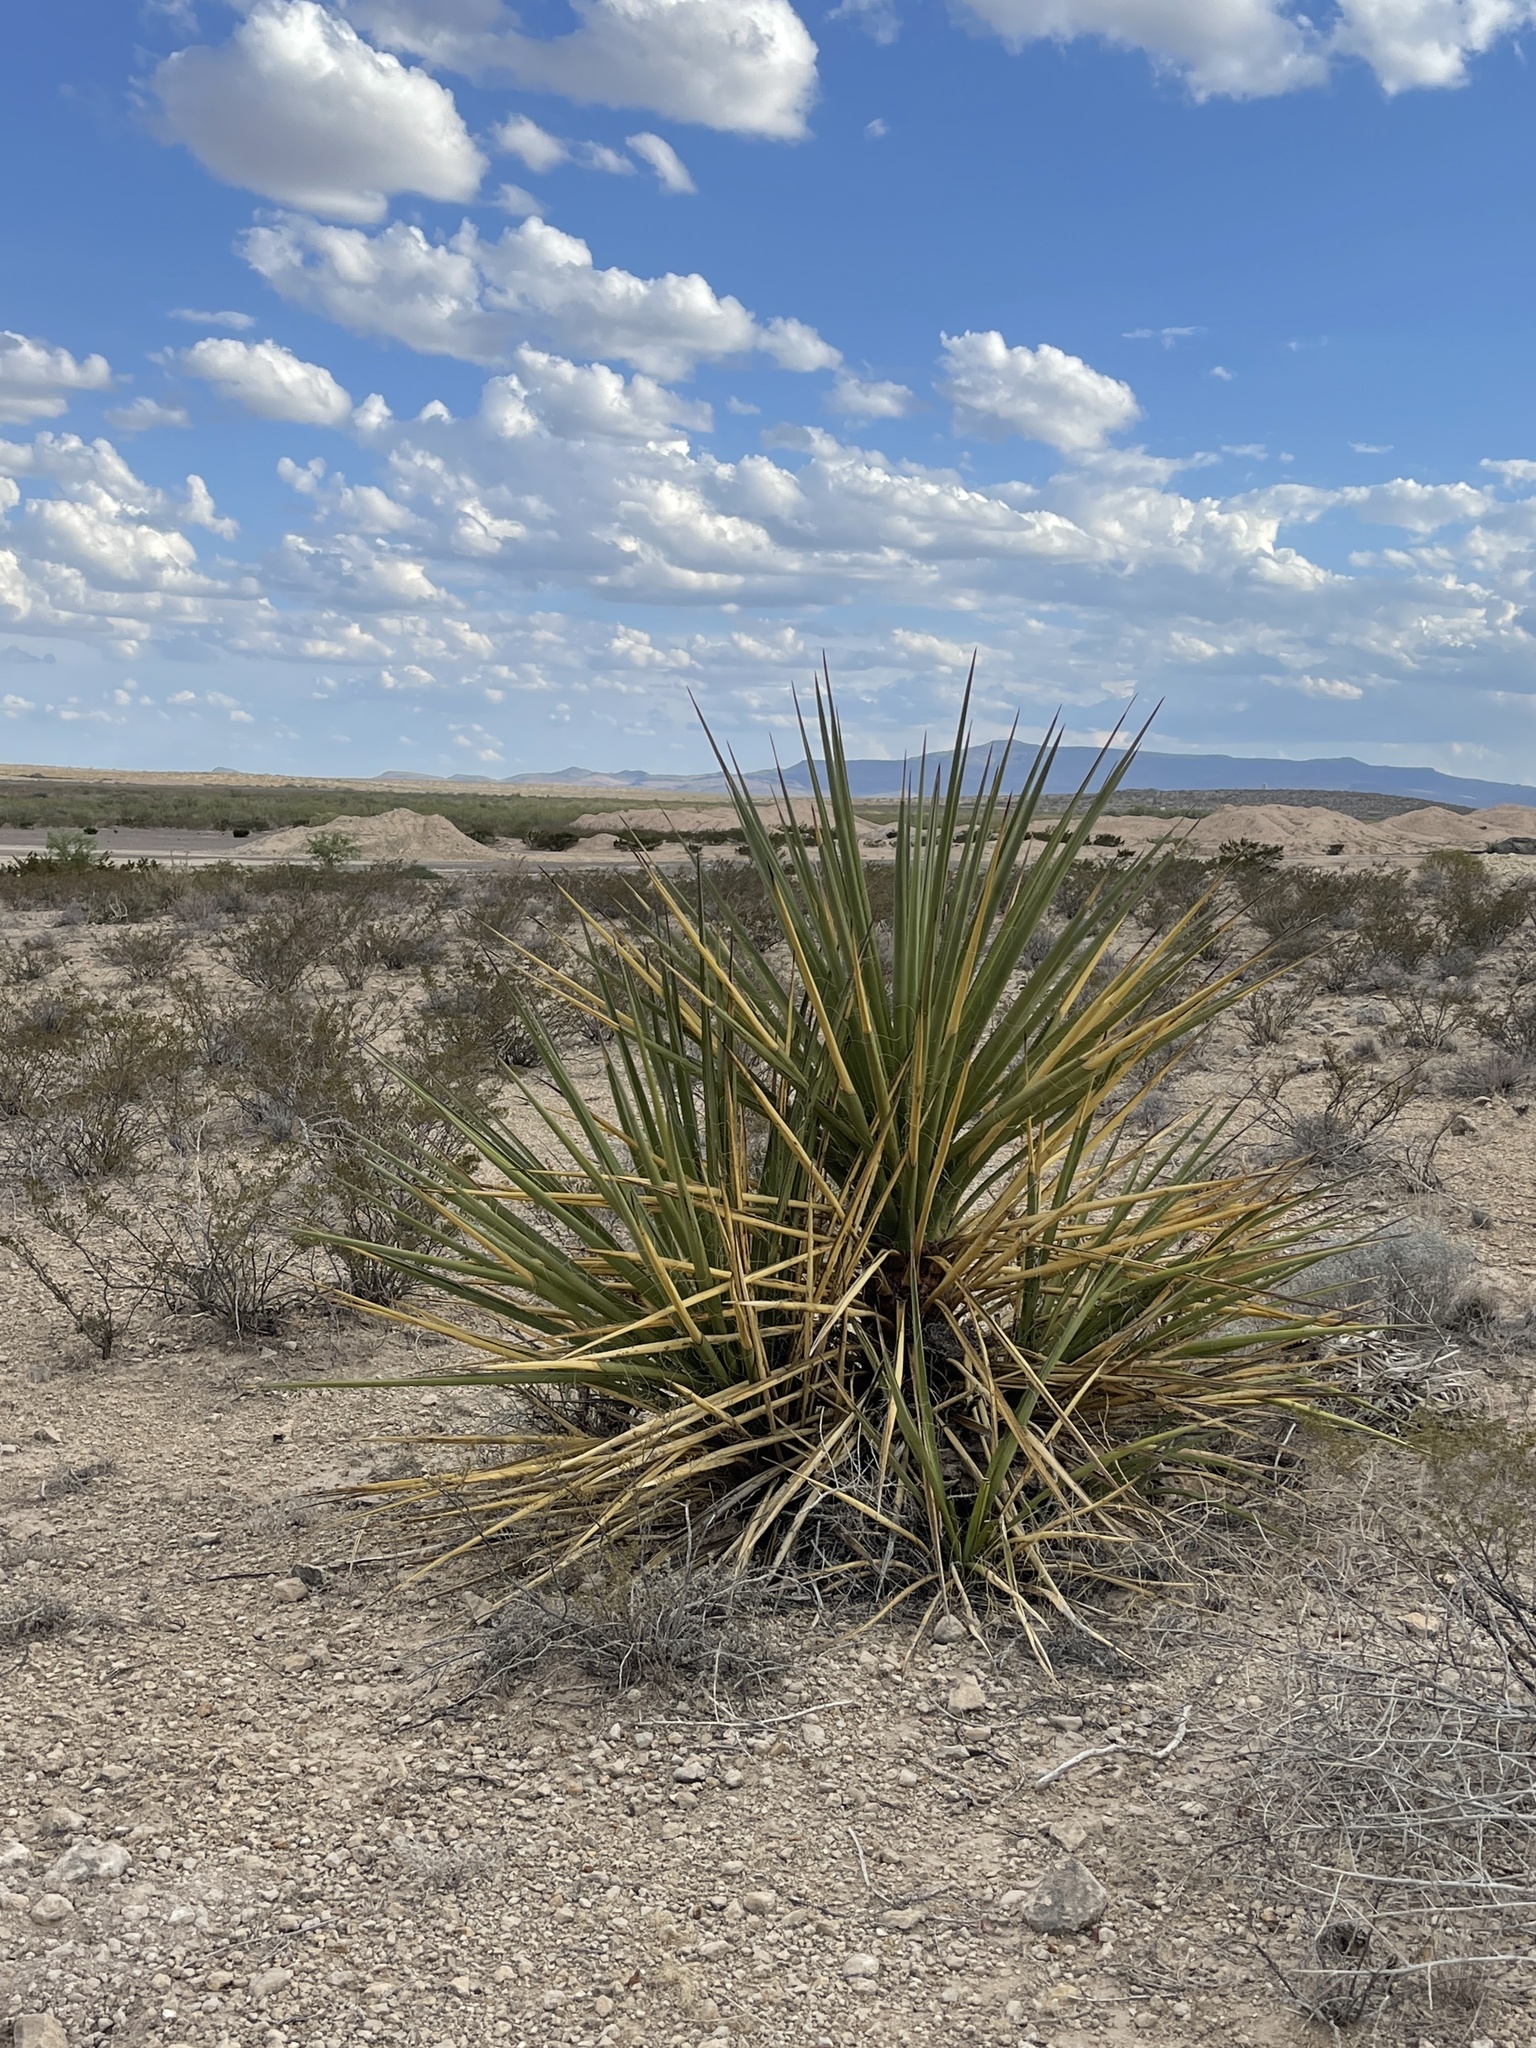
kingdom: Plantae
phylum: Tracheophyta
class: Liliopsida
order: Asparagales
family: Asparagaceae
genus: Yucca
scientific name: Yucca treculiana
